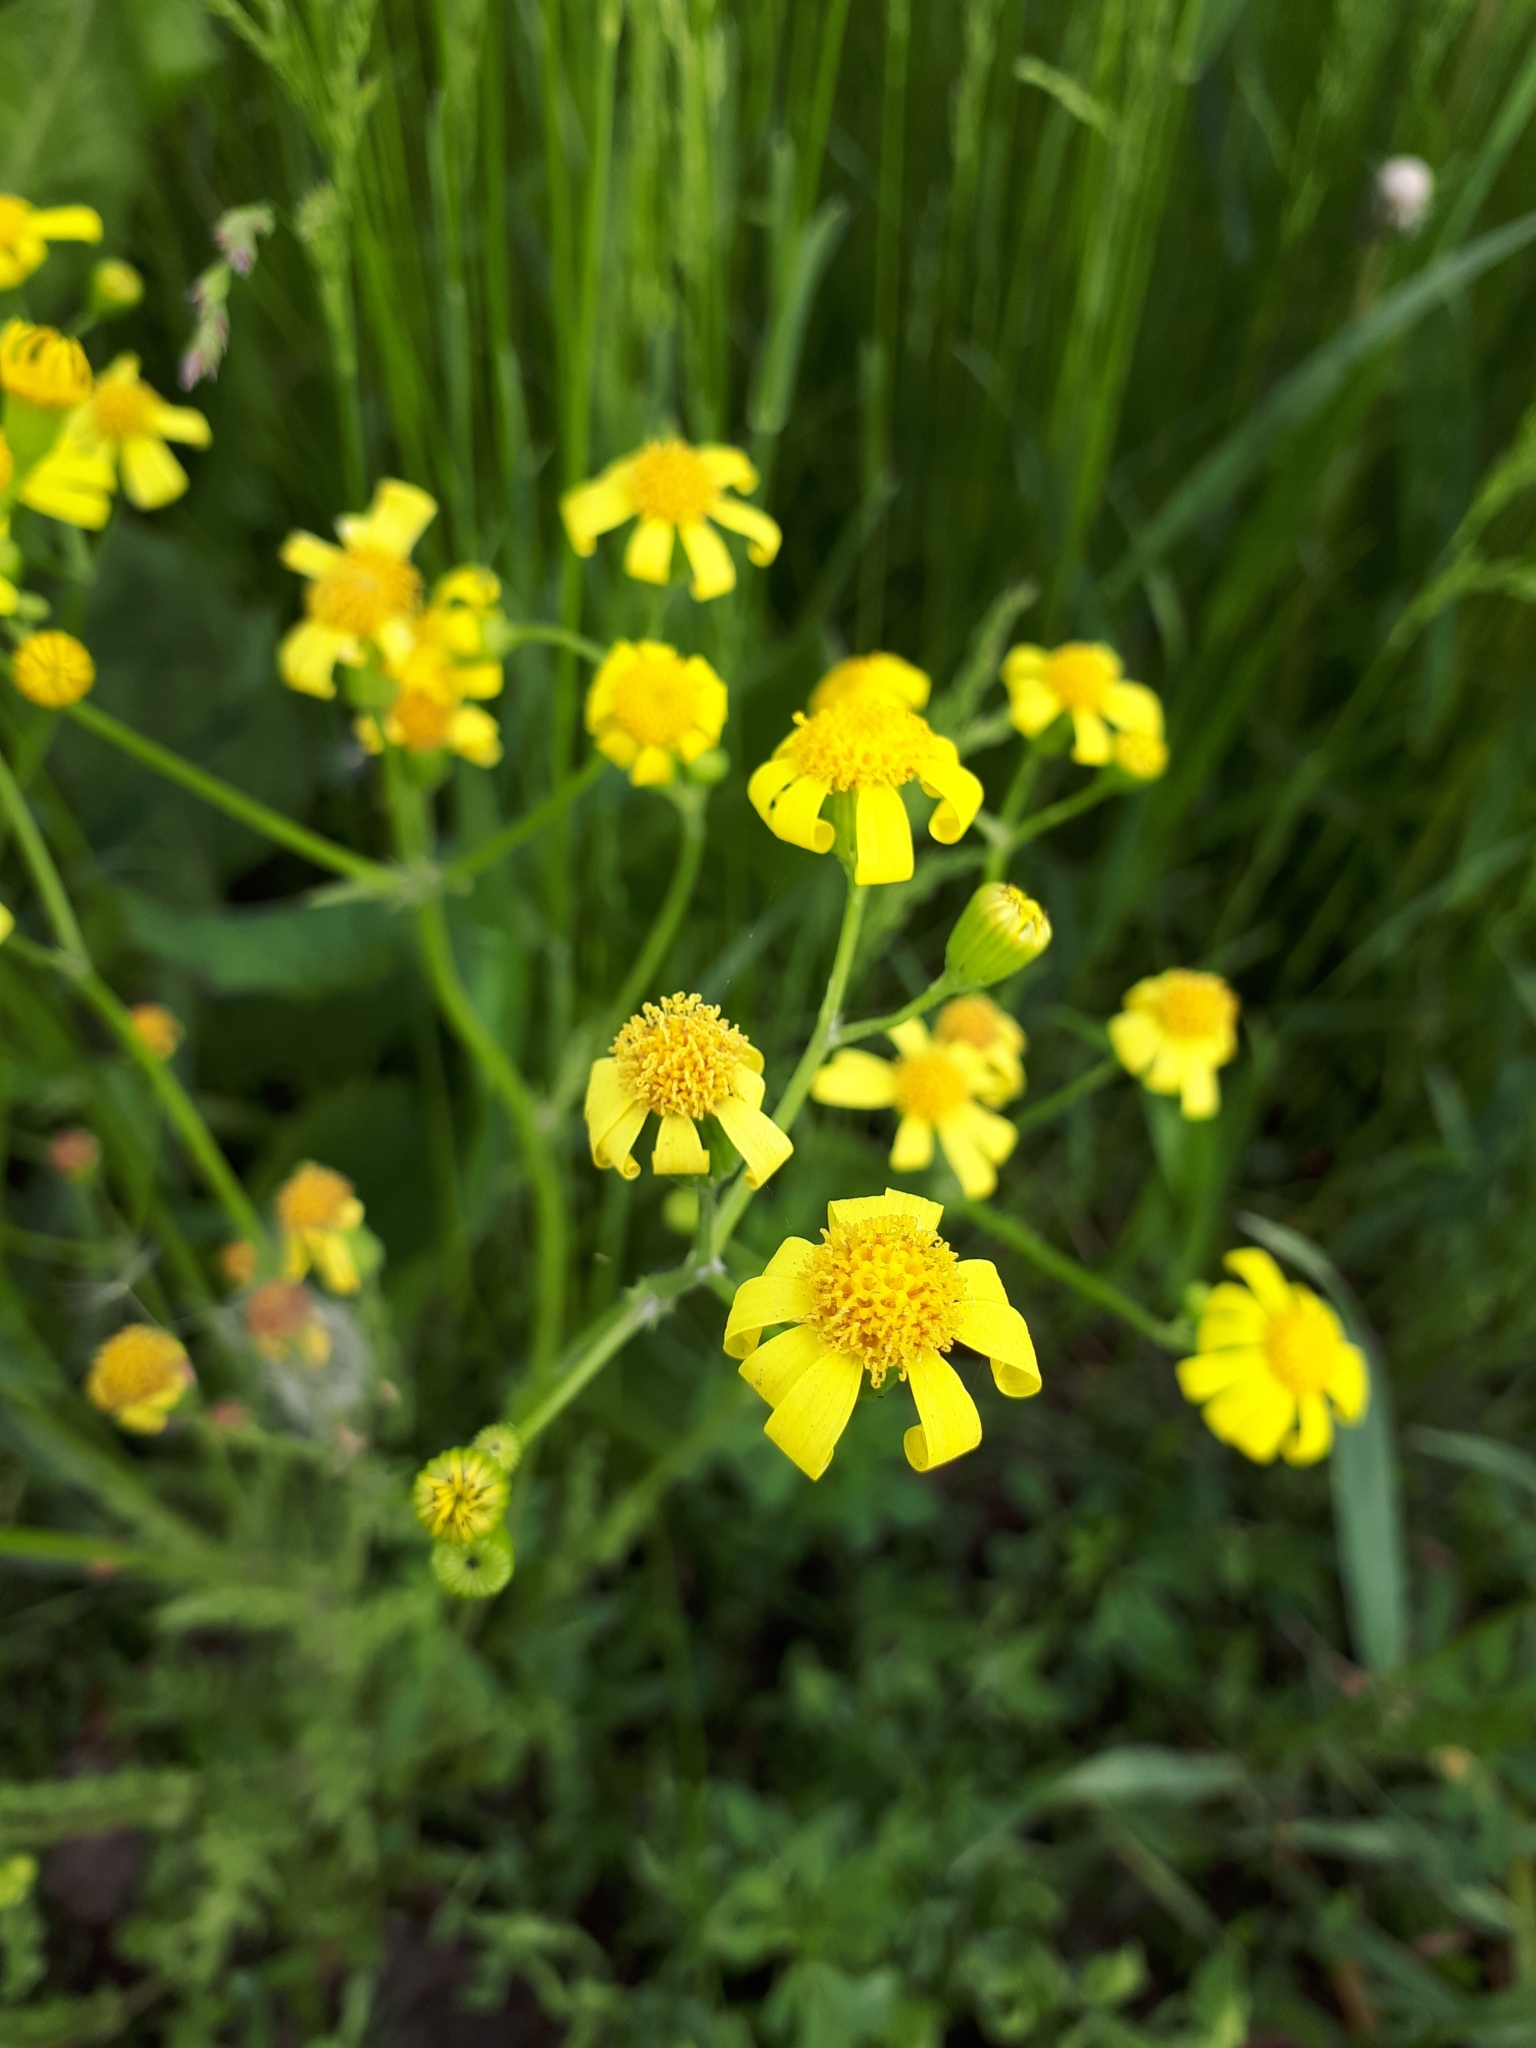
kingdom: Plantae
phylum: Tracheophyta
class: Magnoliopsida
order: Asterales
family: Asteraceae
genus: Senecio
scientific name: Senecio vernalis
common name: Eastern groundsel
